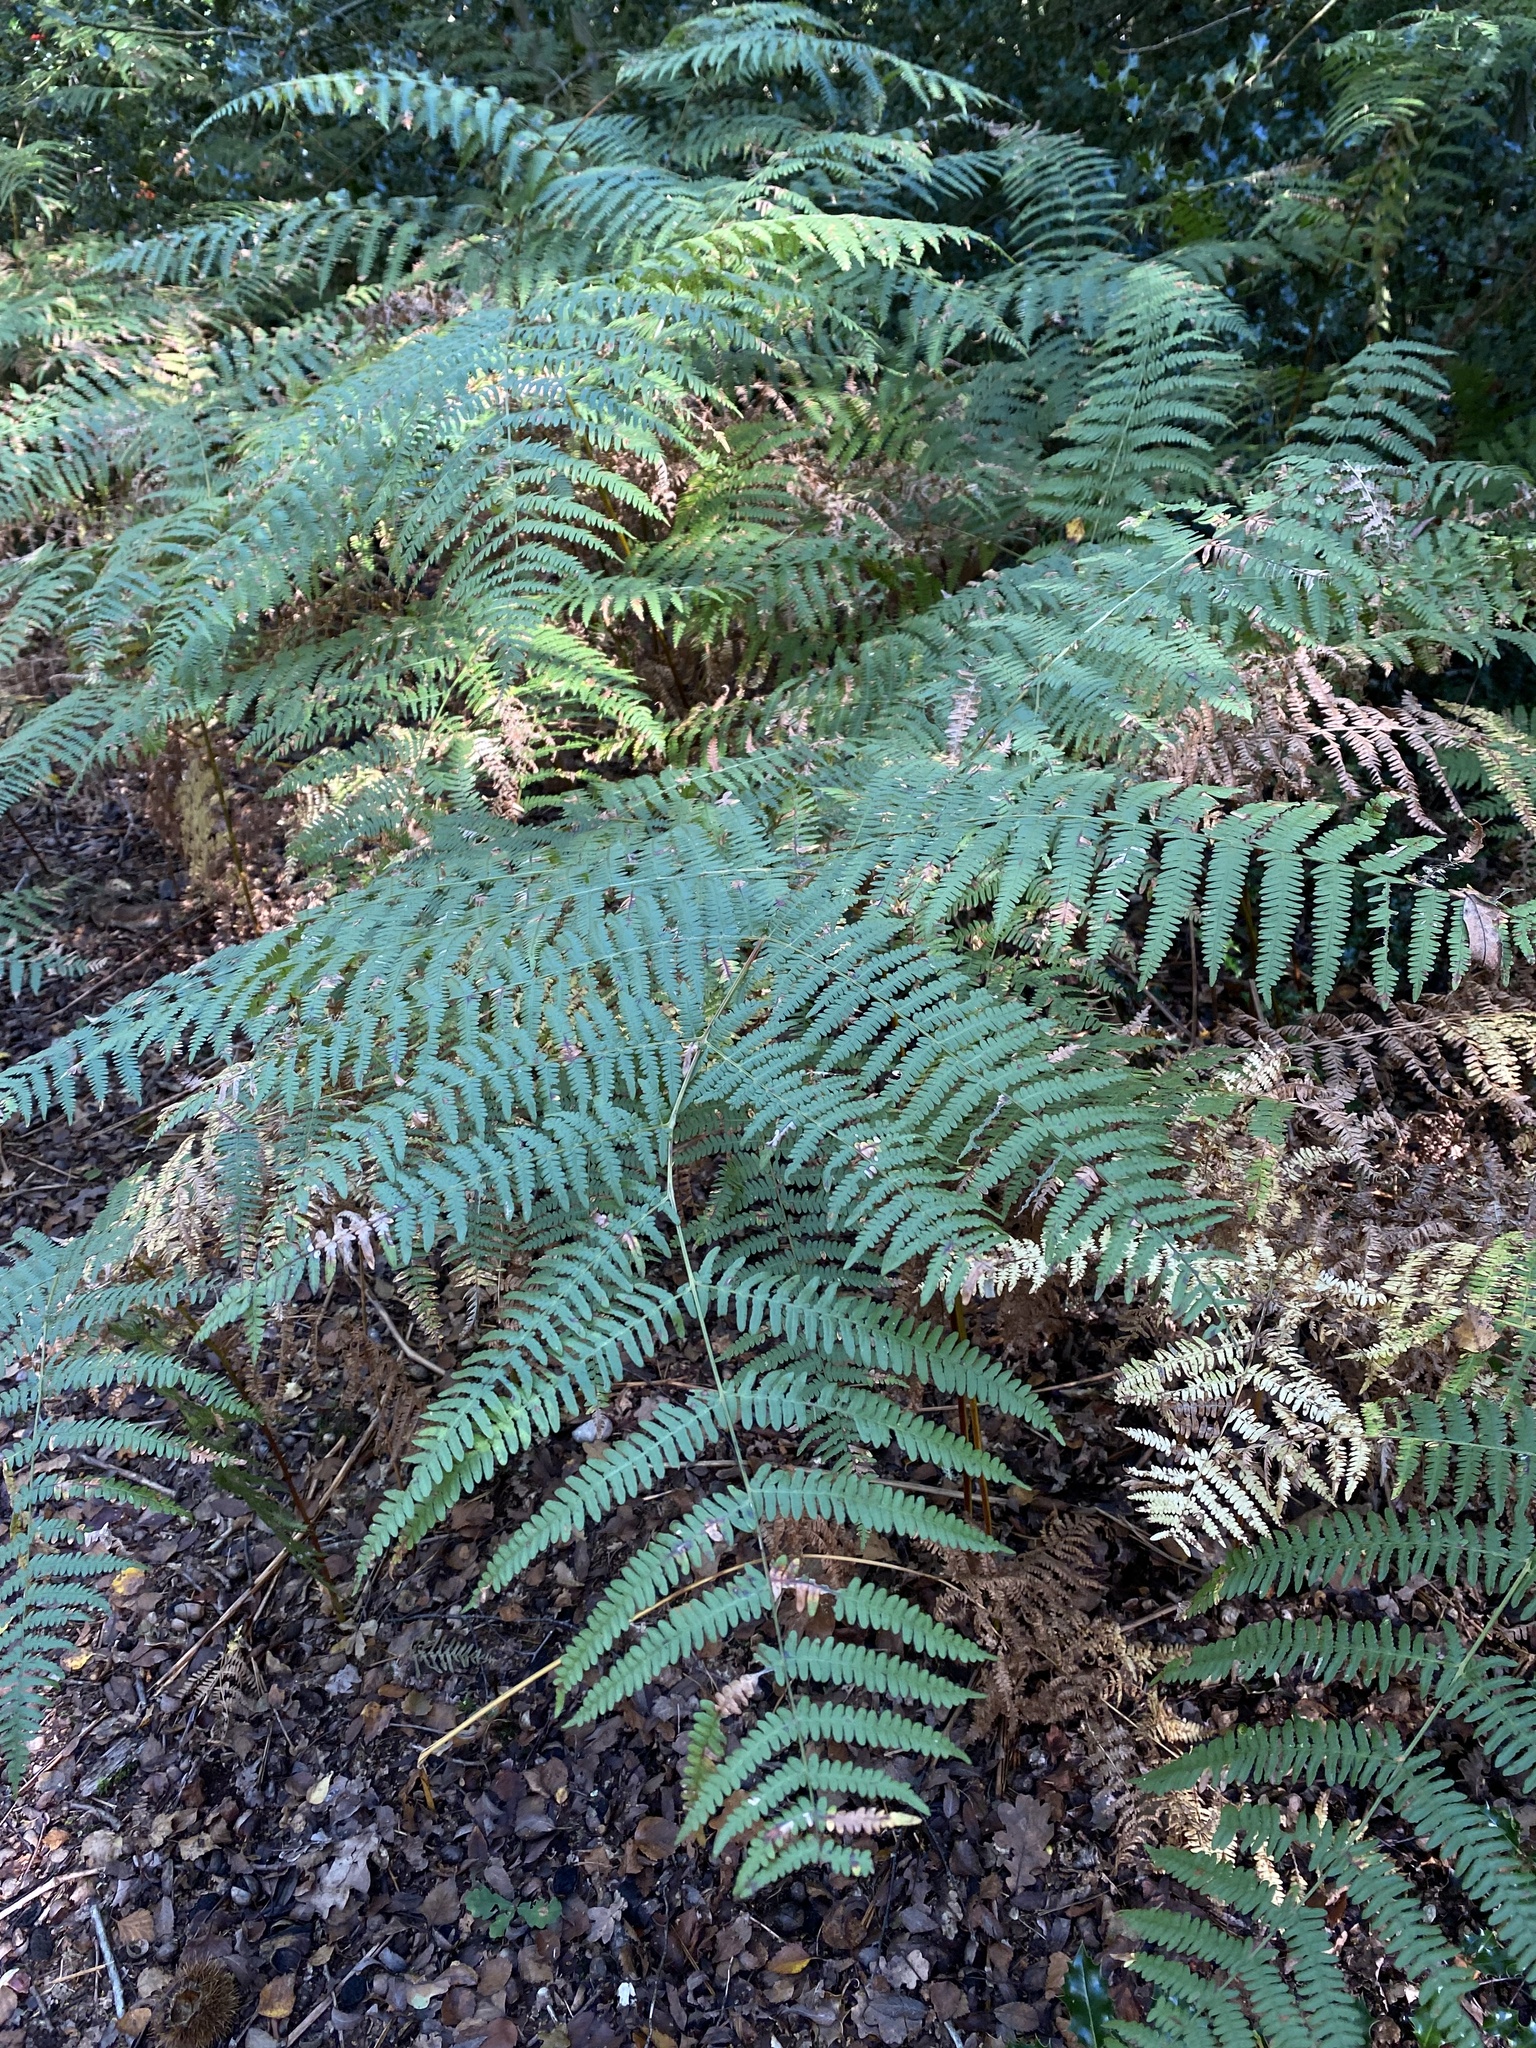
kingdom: Plantae
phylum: Tracheophyta
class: Polypodiopsida
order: Polypodiales
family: Dennstaedtiaceae
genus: Pteridium
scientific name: Pteridium aquilinum
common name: Bracken
